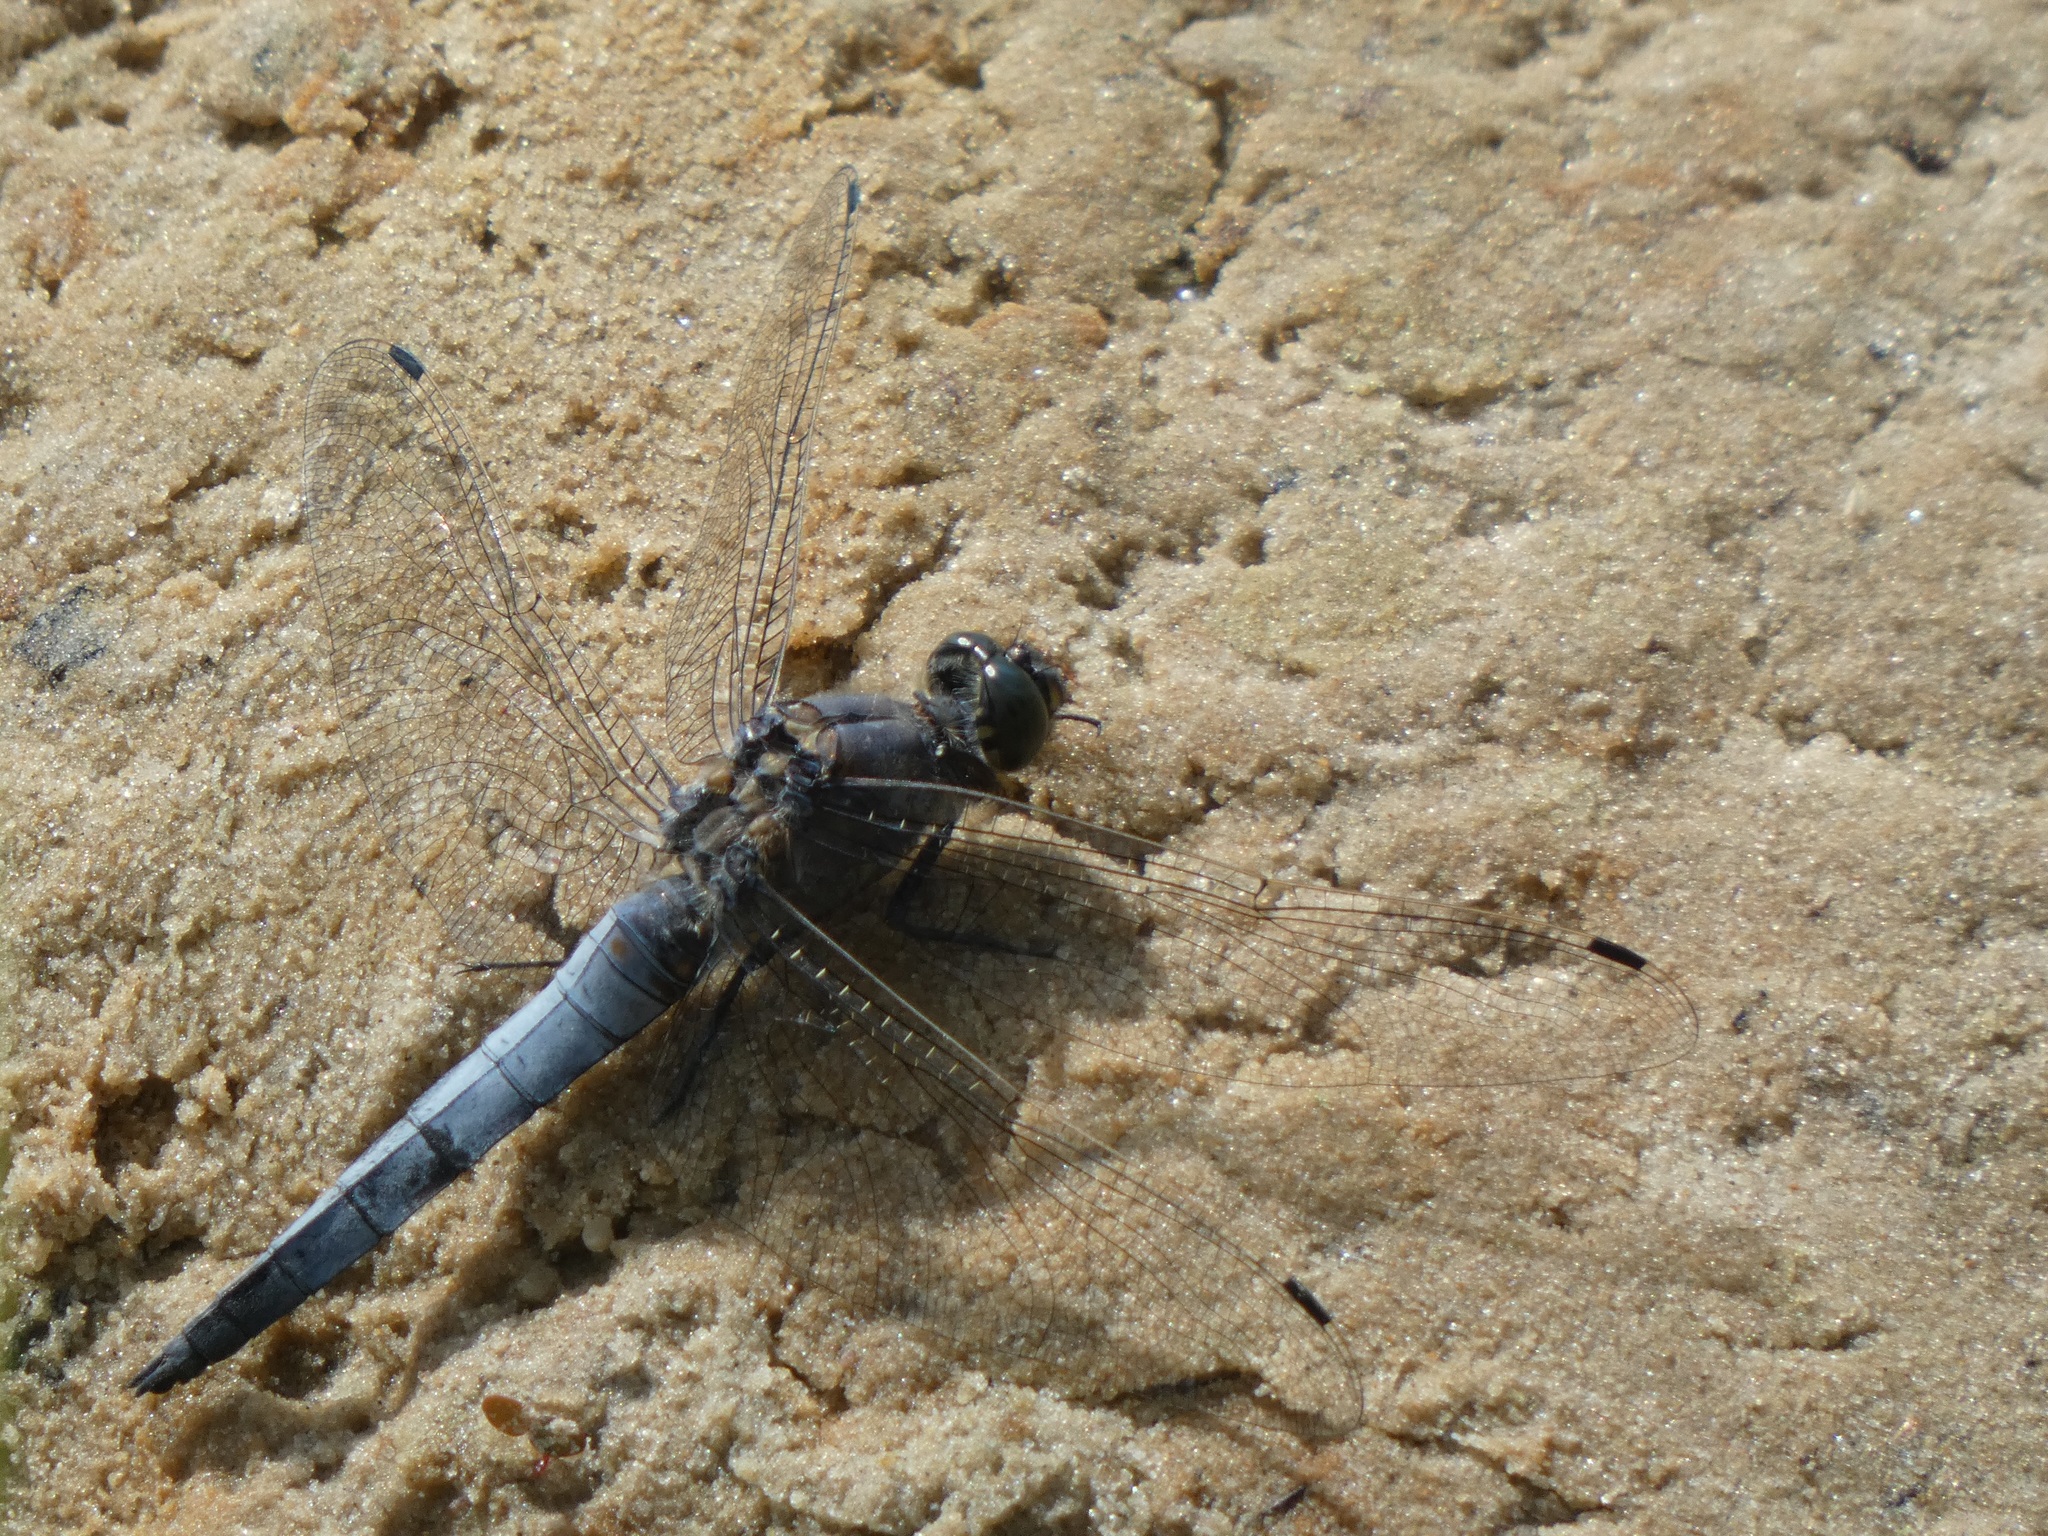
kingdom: Animalia
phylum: Arthropoda
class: Insecta
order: Odonata
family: Libellulidae
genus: Orthetrum
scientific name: Orthetrum cancellatum
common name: Black-tailed skimmer
